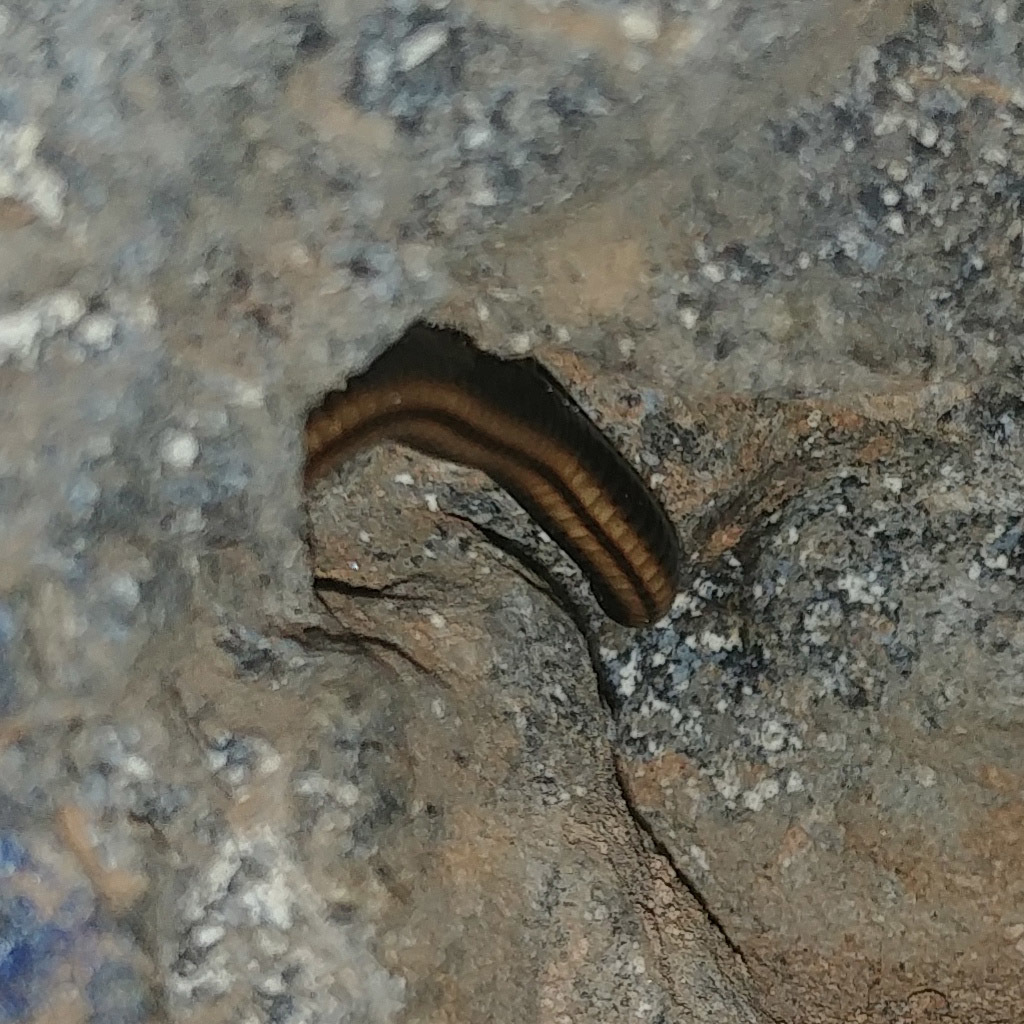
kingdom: Animalia
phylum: Arthropoda
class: Diplopoda
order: Julida
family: Julidae
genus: Ommatoiulus
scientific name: Ommatoiulus sabulosus
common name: Striped millipede
